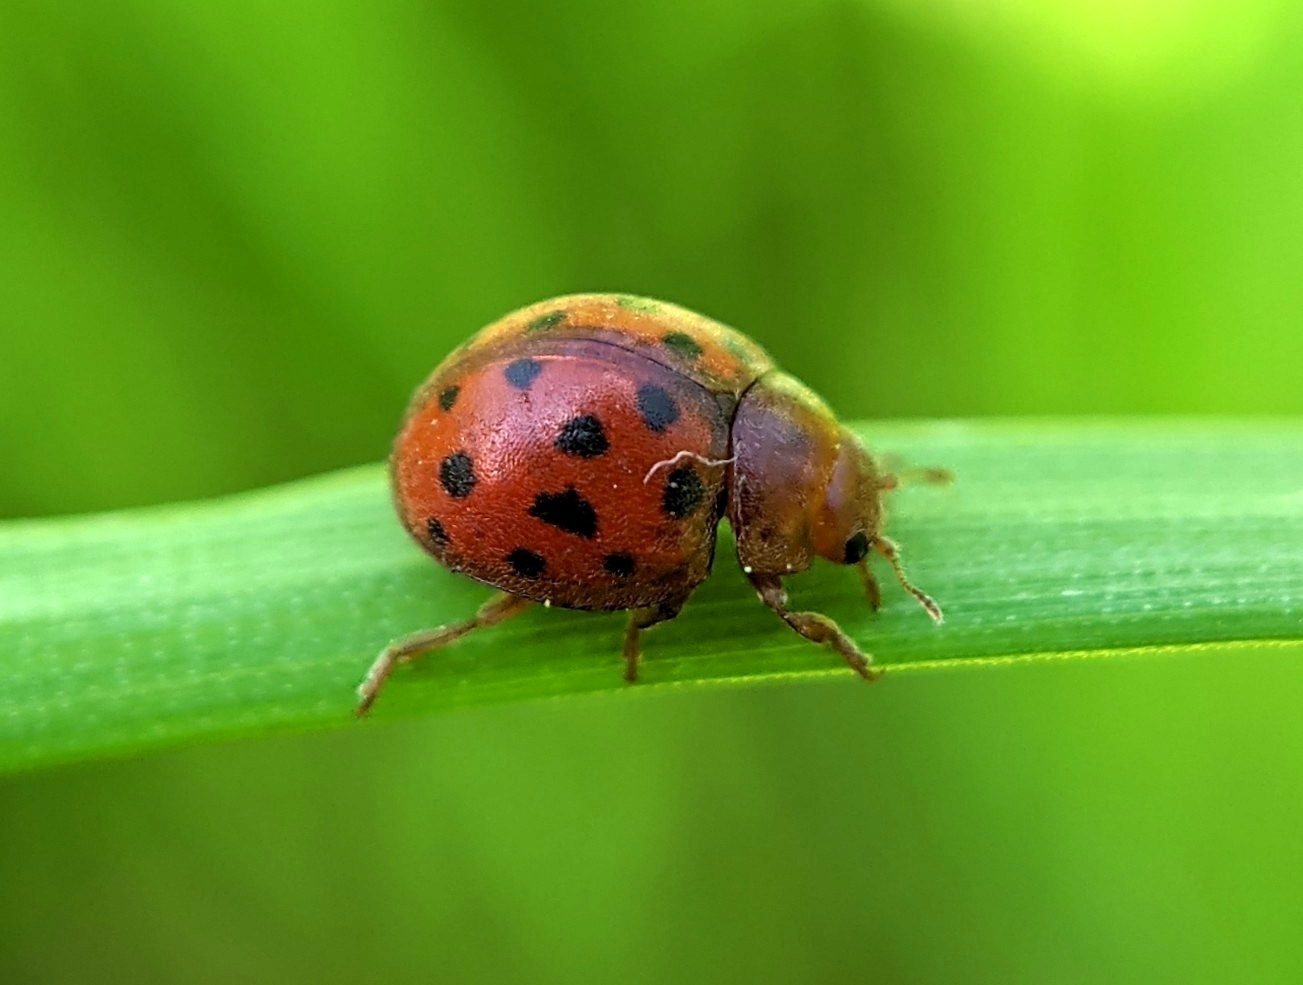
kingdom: Animalia
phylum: Arthropoda
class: Insecta
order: Coleoptera
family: Coccinellidae
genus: Subcoccinella
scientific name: Subcoccinella vigintiquatuorpunctata
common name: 24-spot ladybird
